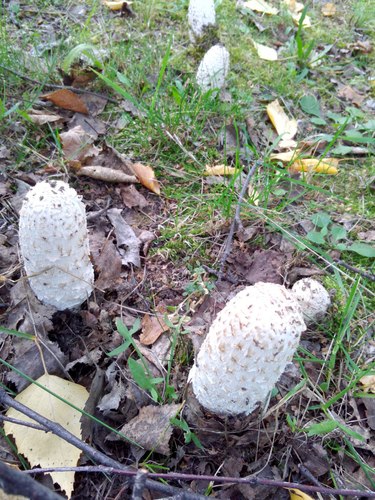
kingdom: Fungi
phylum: Basidiomycota
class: Agaricomycetes
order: Agaricales
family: Agaricaceae
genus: Coprinus
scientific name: Coprinus comatus
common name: Lawyer's wig
